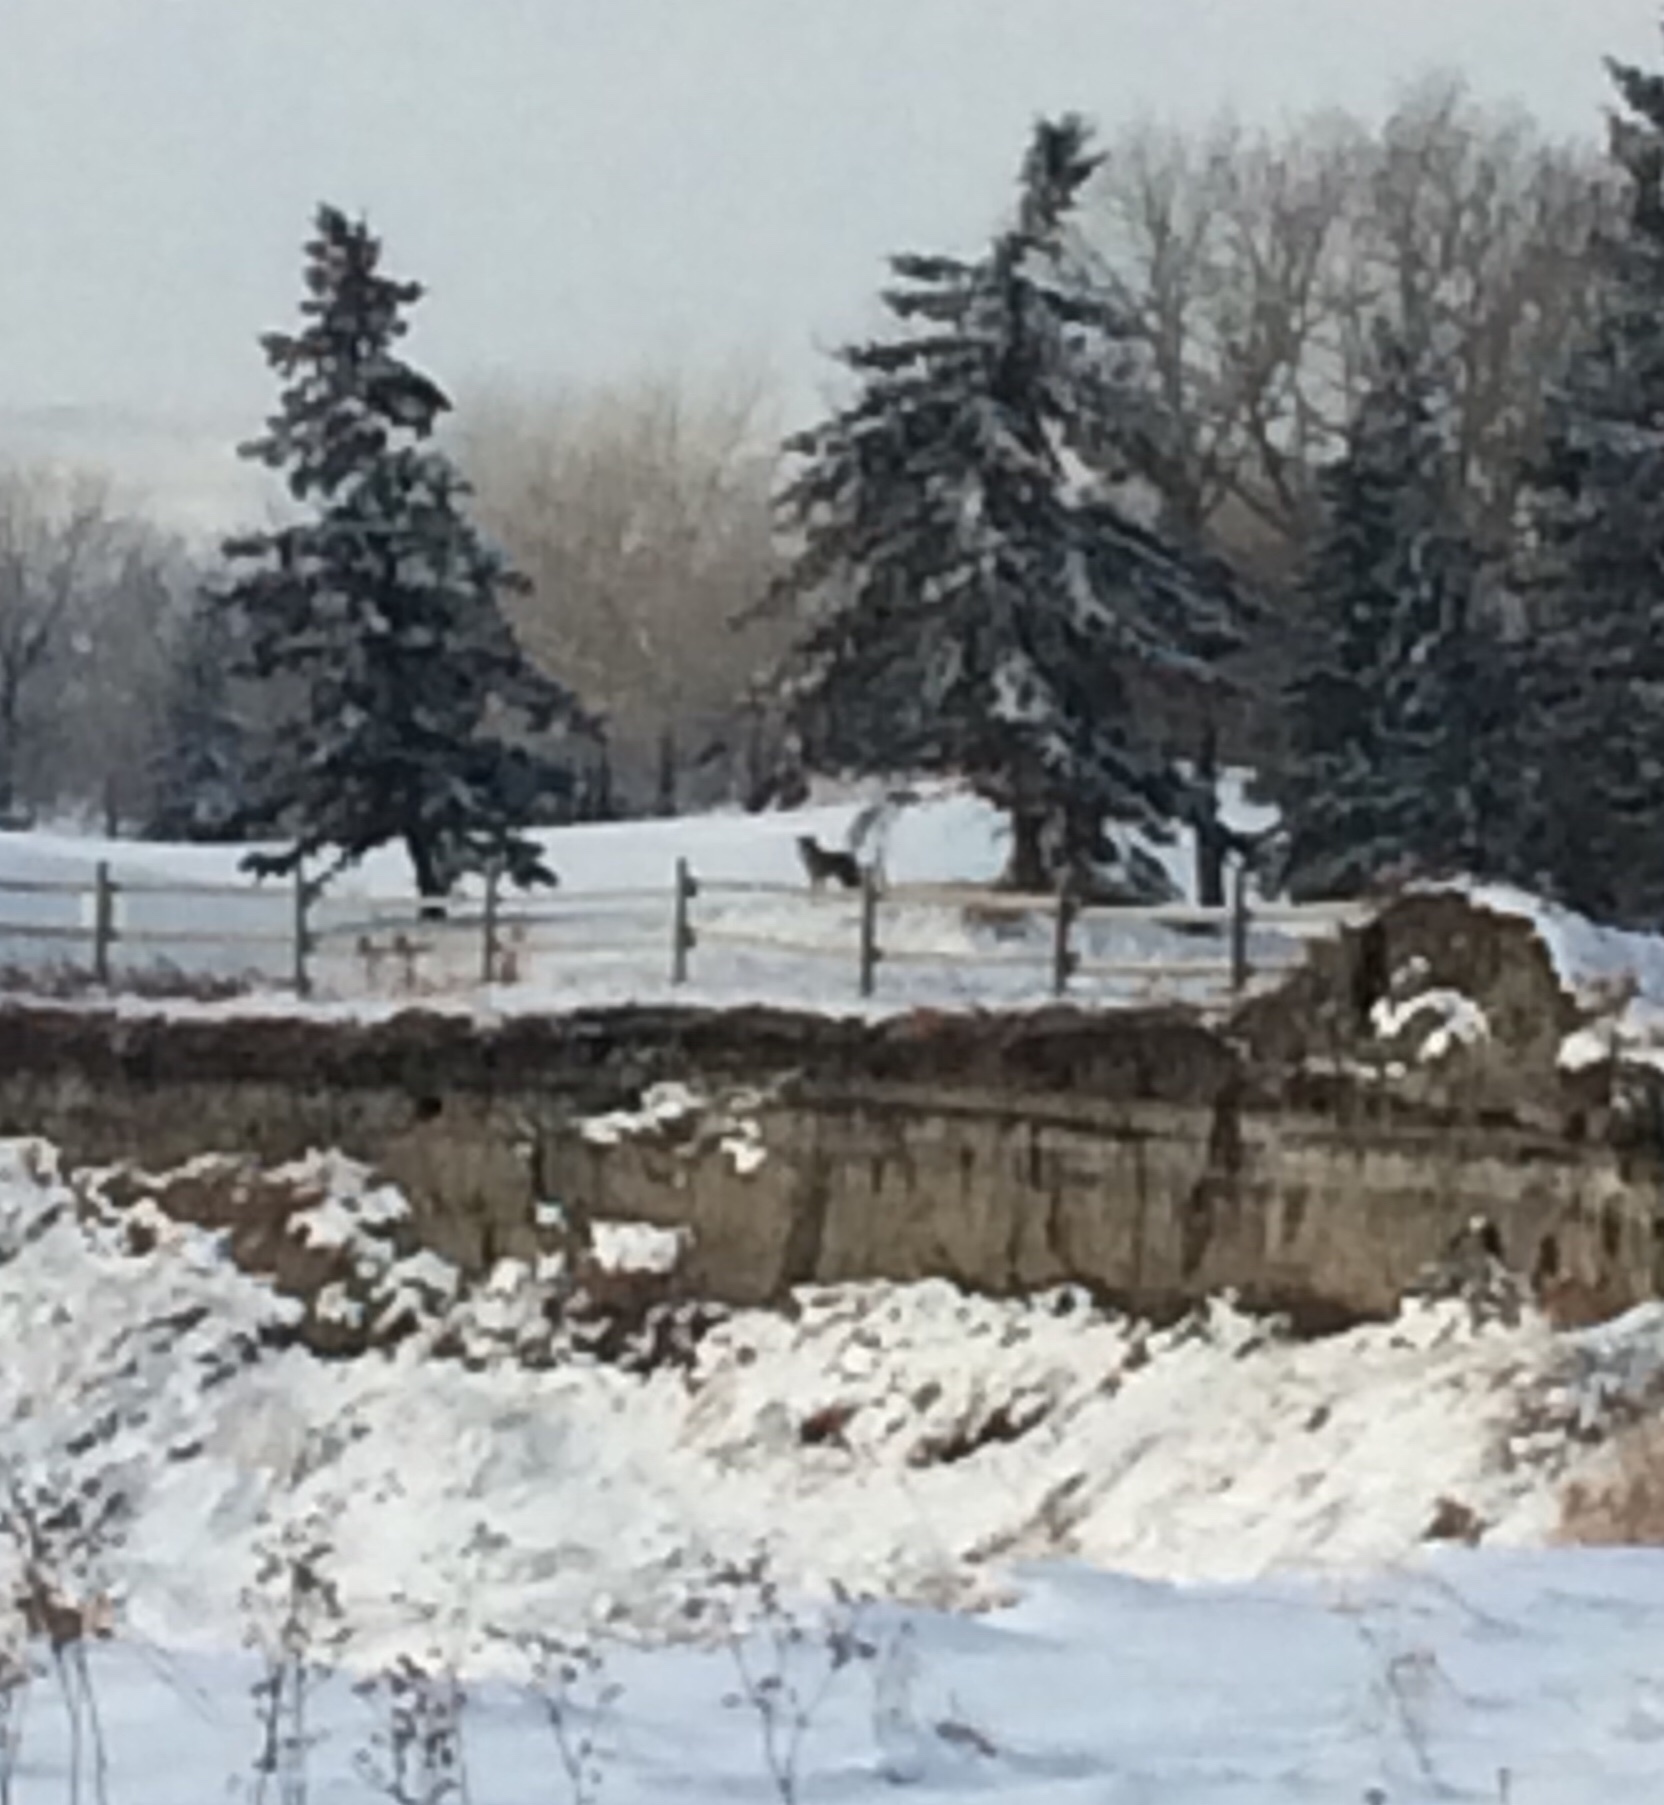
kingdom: Animalia
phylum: Chordata
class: Mammalia
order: Carnivora
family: Canidae
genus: Canis
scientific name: Canis latrans
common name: Coyote
